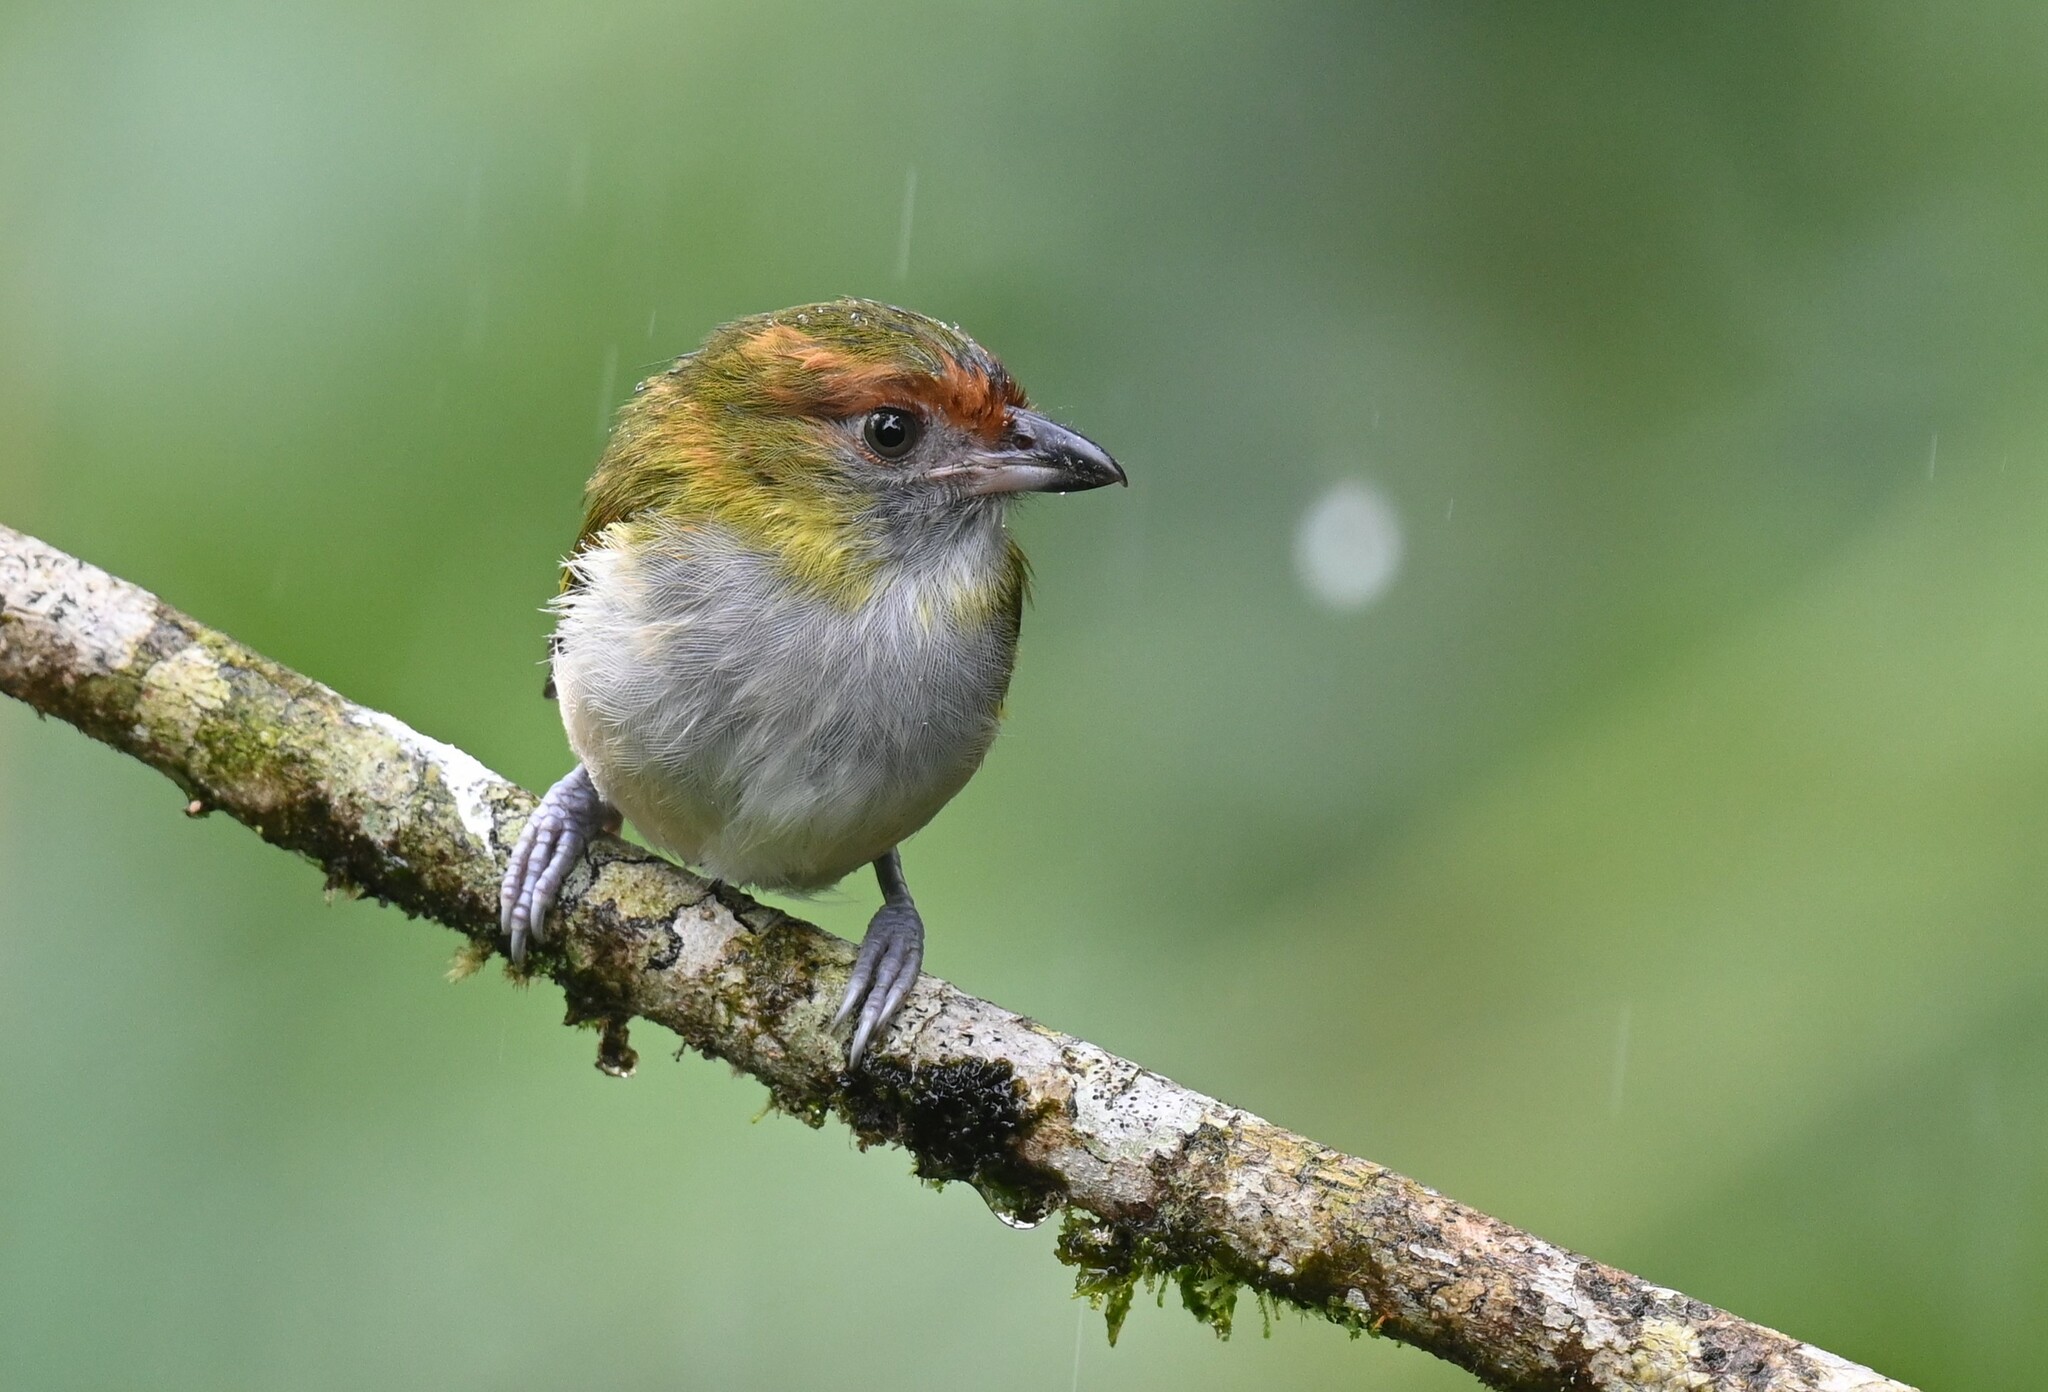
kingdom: Animalia
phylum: Chordata
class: Aves
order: Passeriformes
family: Vireonidae
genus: Cyclarhis
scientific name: Cyclarhis nigrirostris
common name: Black-billed peppershrike
